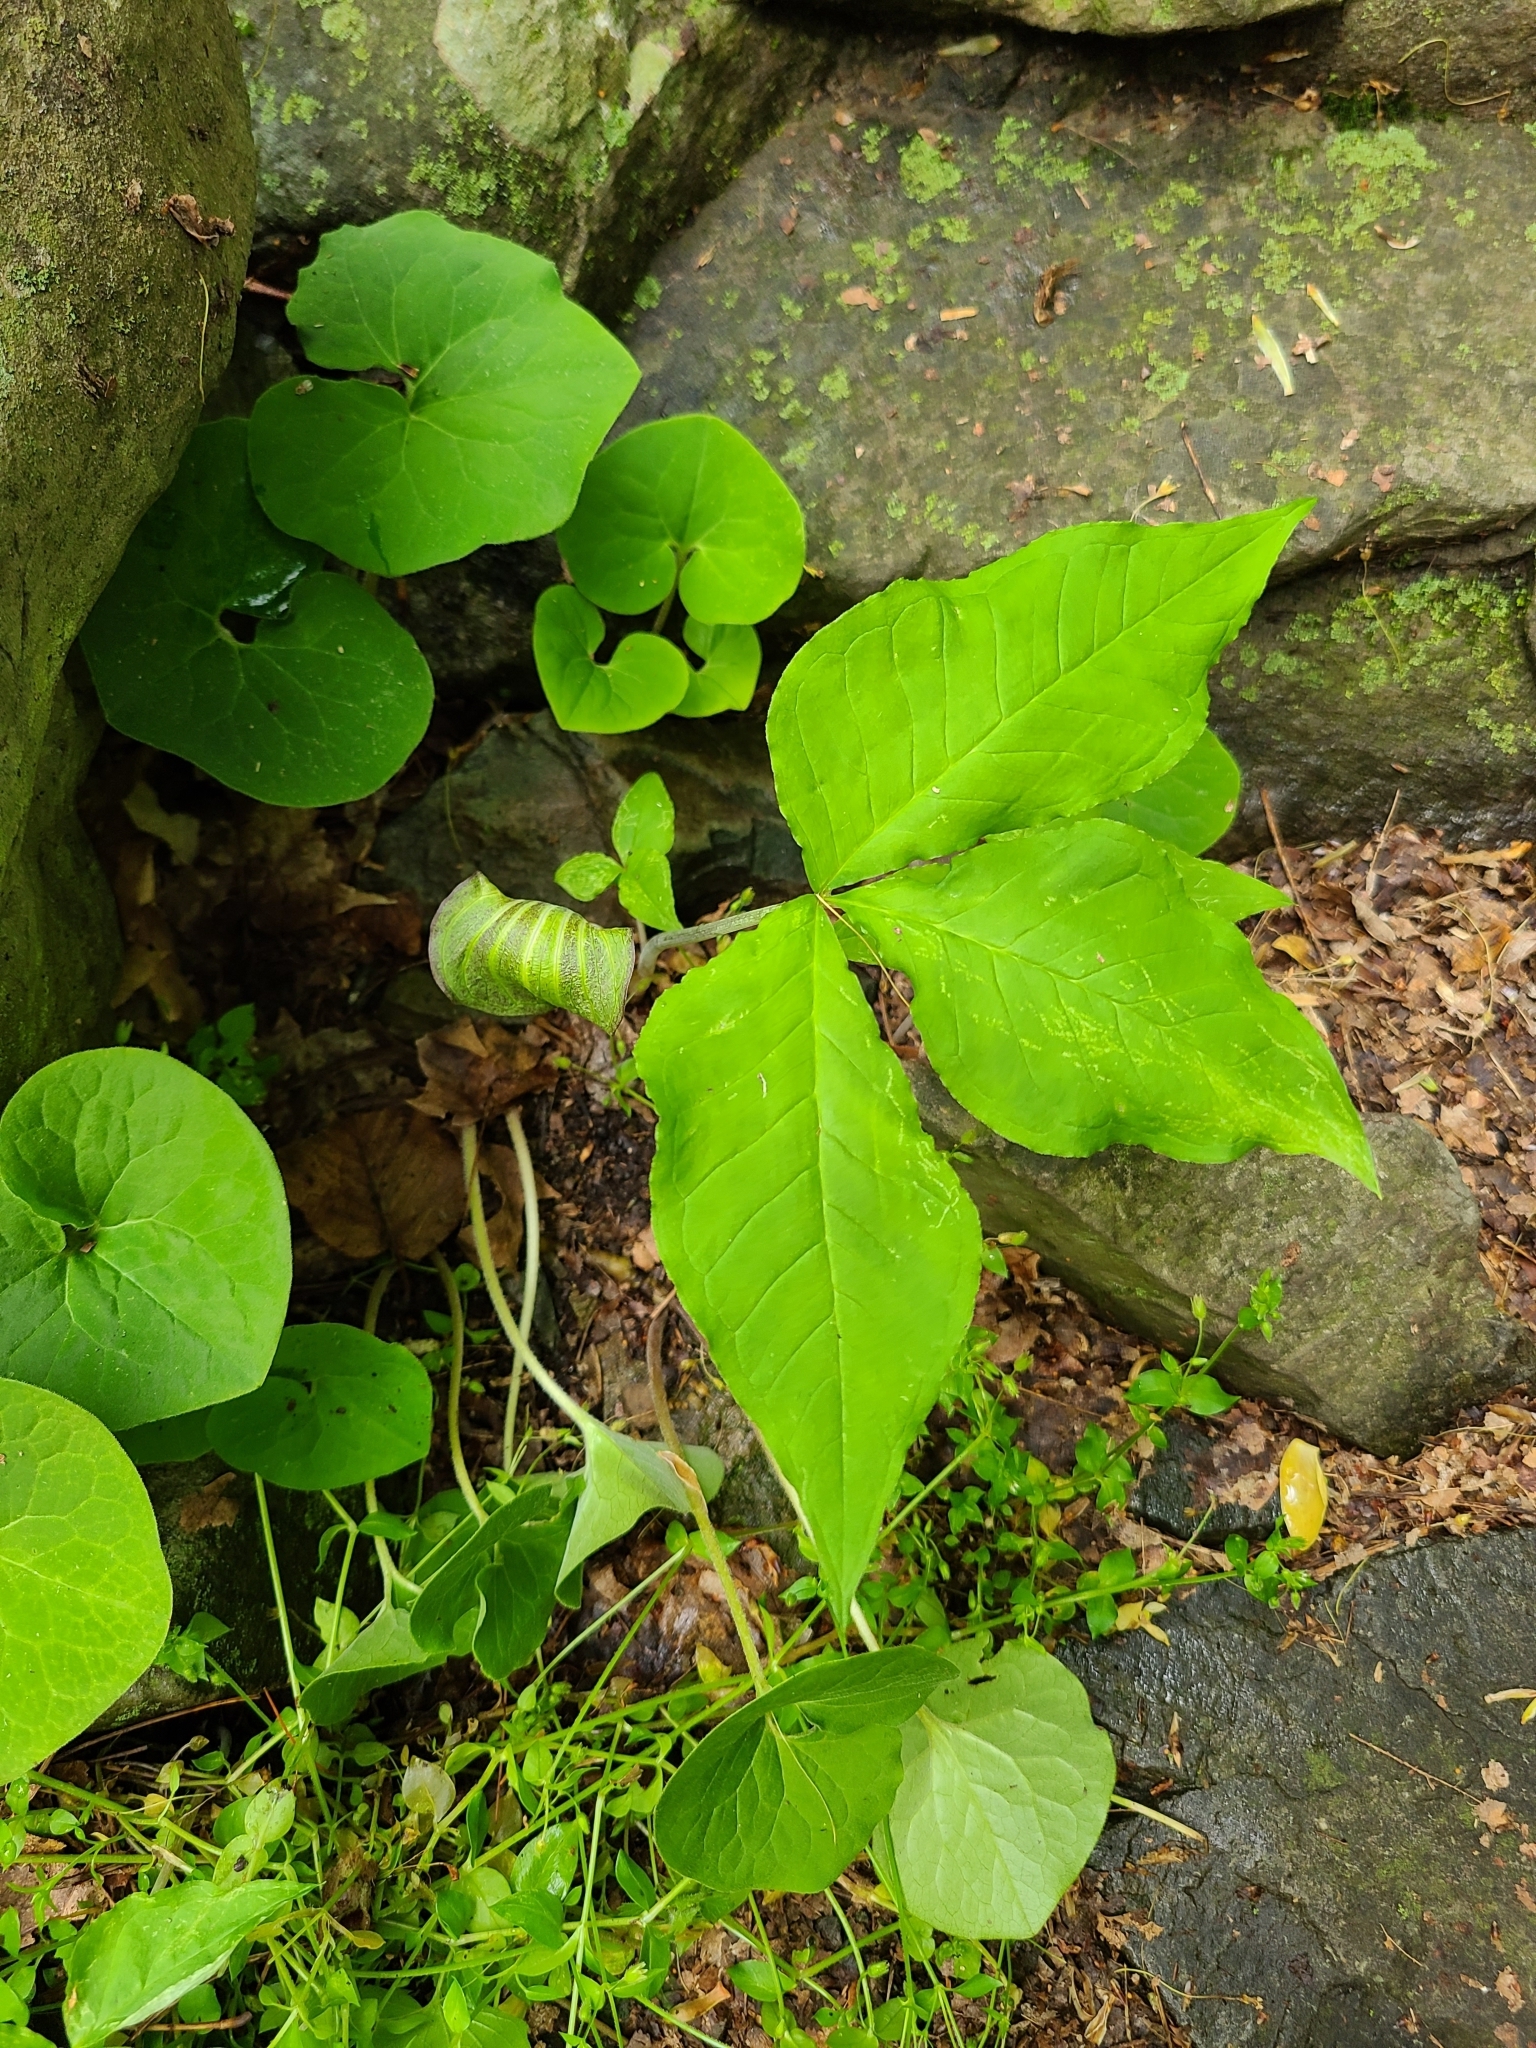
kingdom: Plantae
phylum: Tracheophyta
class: Liliopsida
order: Alismatales
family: Araceae
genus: Arisaema
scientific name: Arisaema triphyllum
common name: Jack-in-the-pulpit
